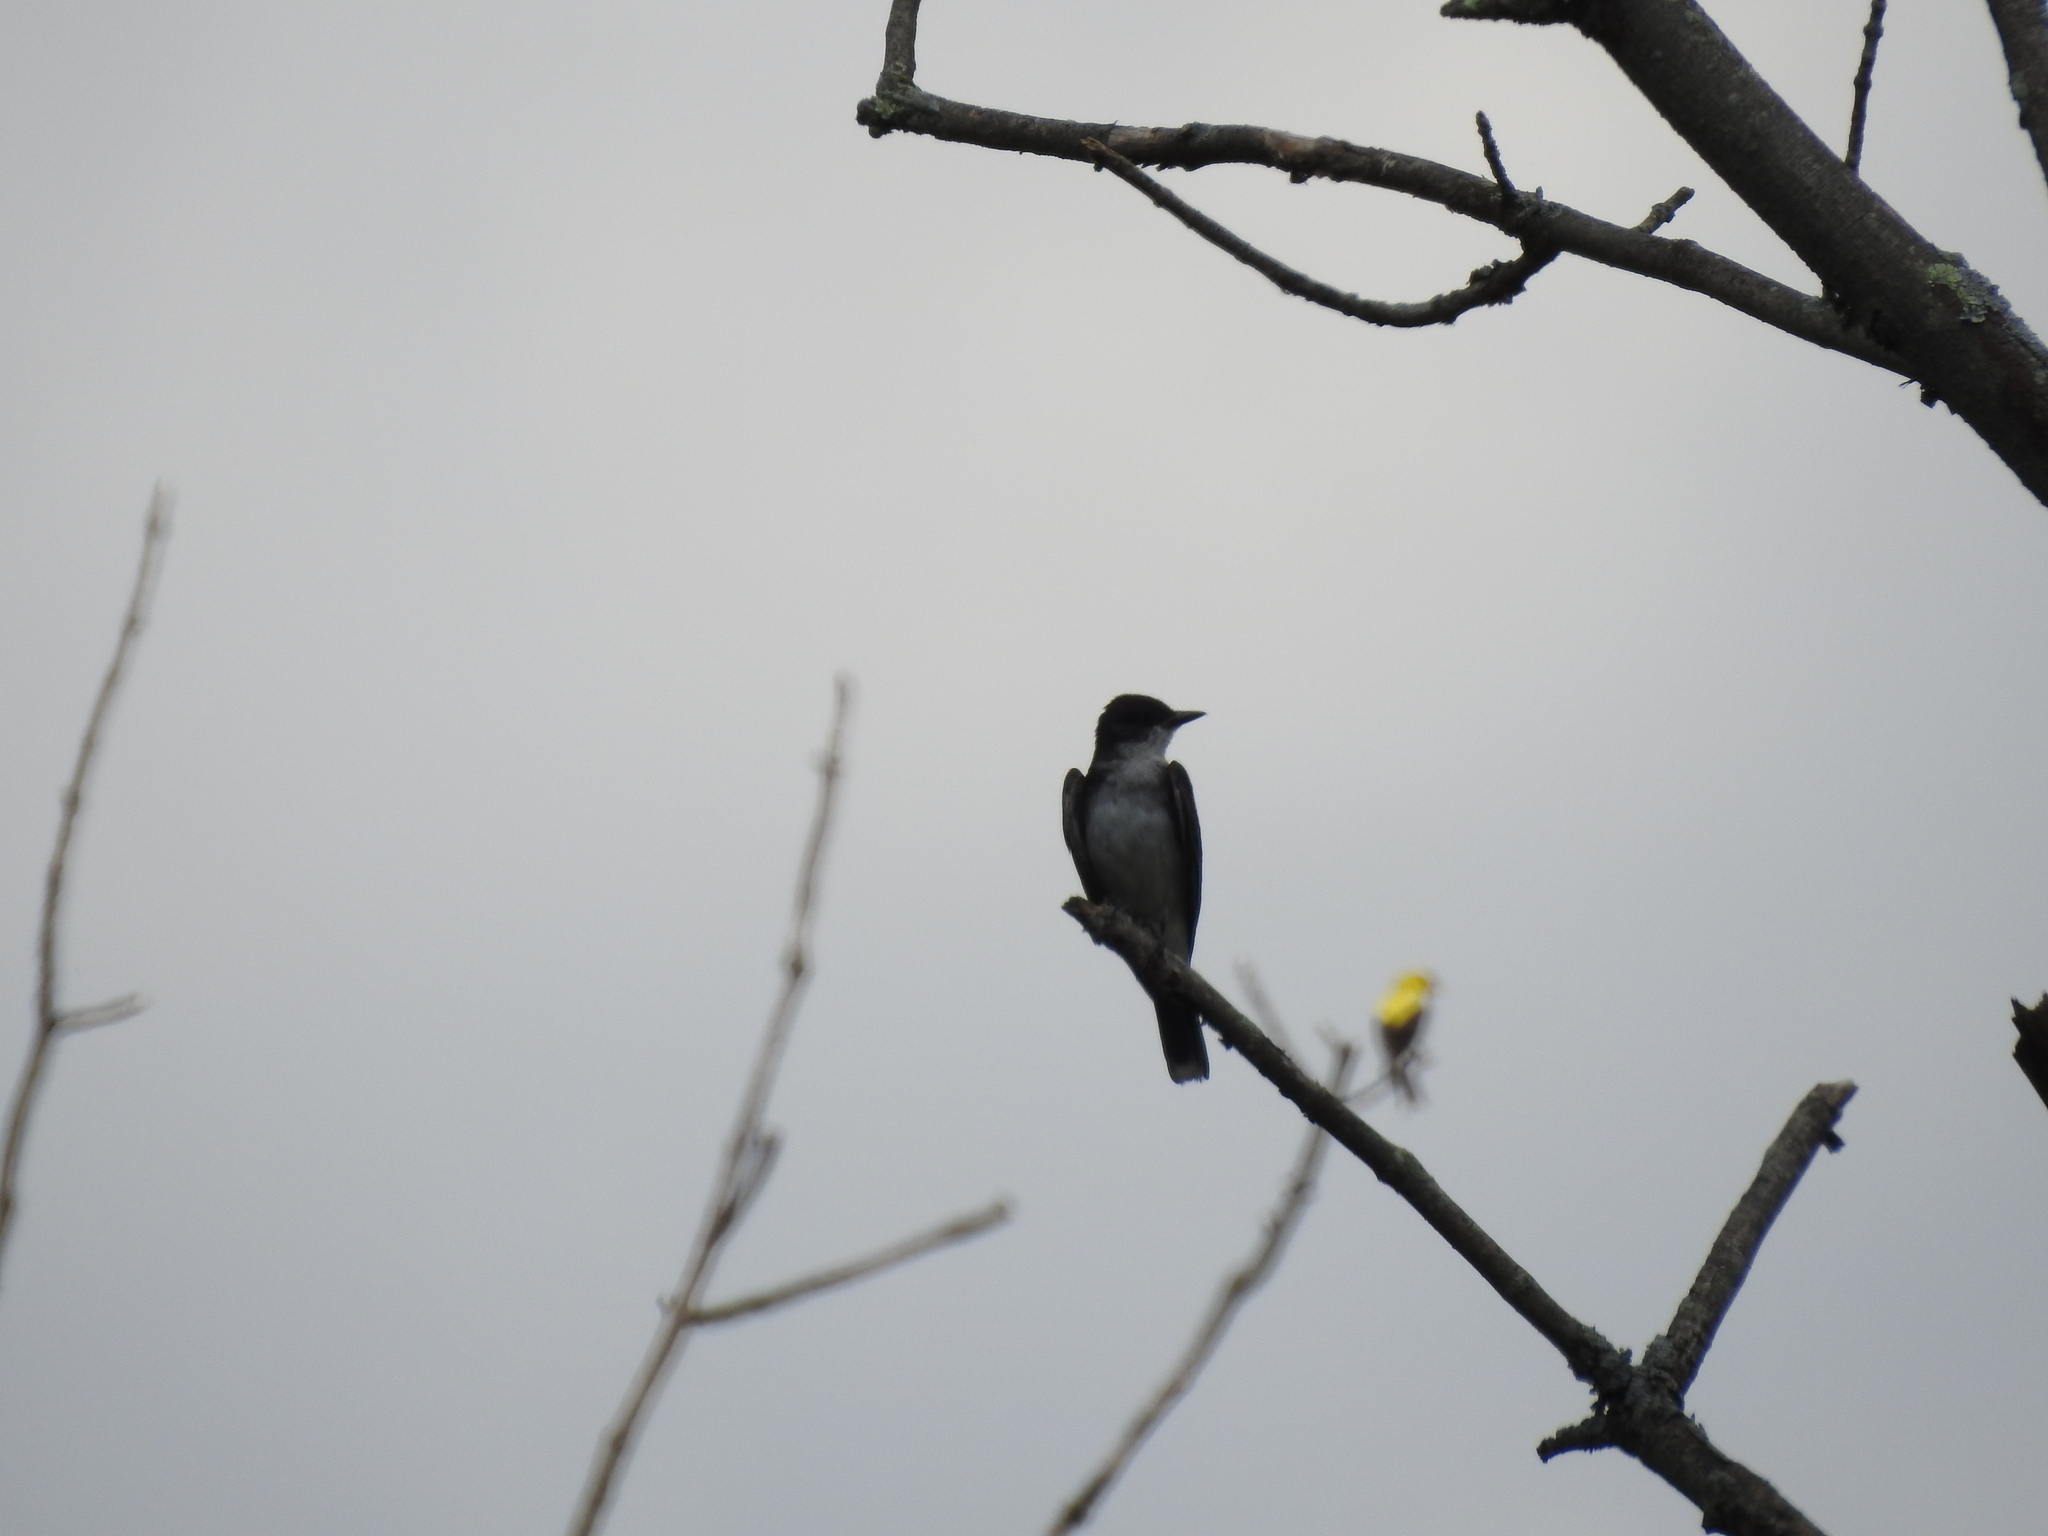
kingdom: Animalia
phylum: Chordata
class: Aves
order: Passeriformes
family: Tyrannidae
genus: Tyrannus
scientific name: Tyrannus tyrannus
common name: Eastern kingbird
